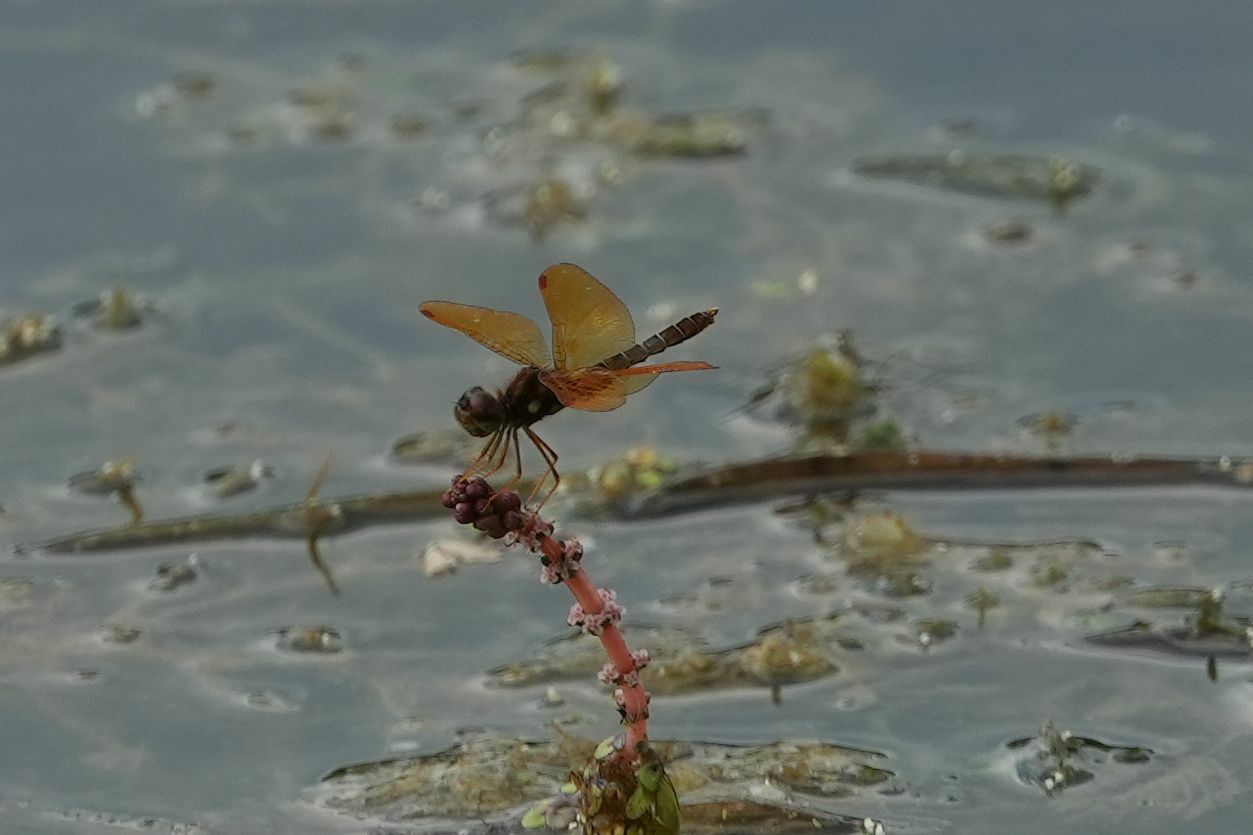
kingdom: Animalia
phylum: Arthropoda
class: Insecta
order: Odonata
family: Libellulidae
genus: Perithemis
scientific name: Perithemis tenera
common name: Eastern amberwing
